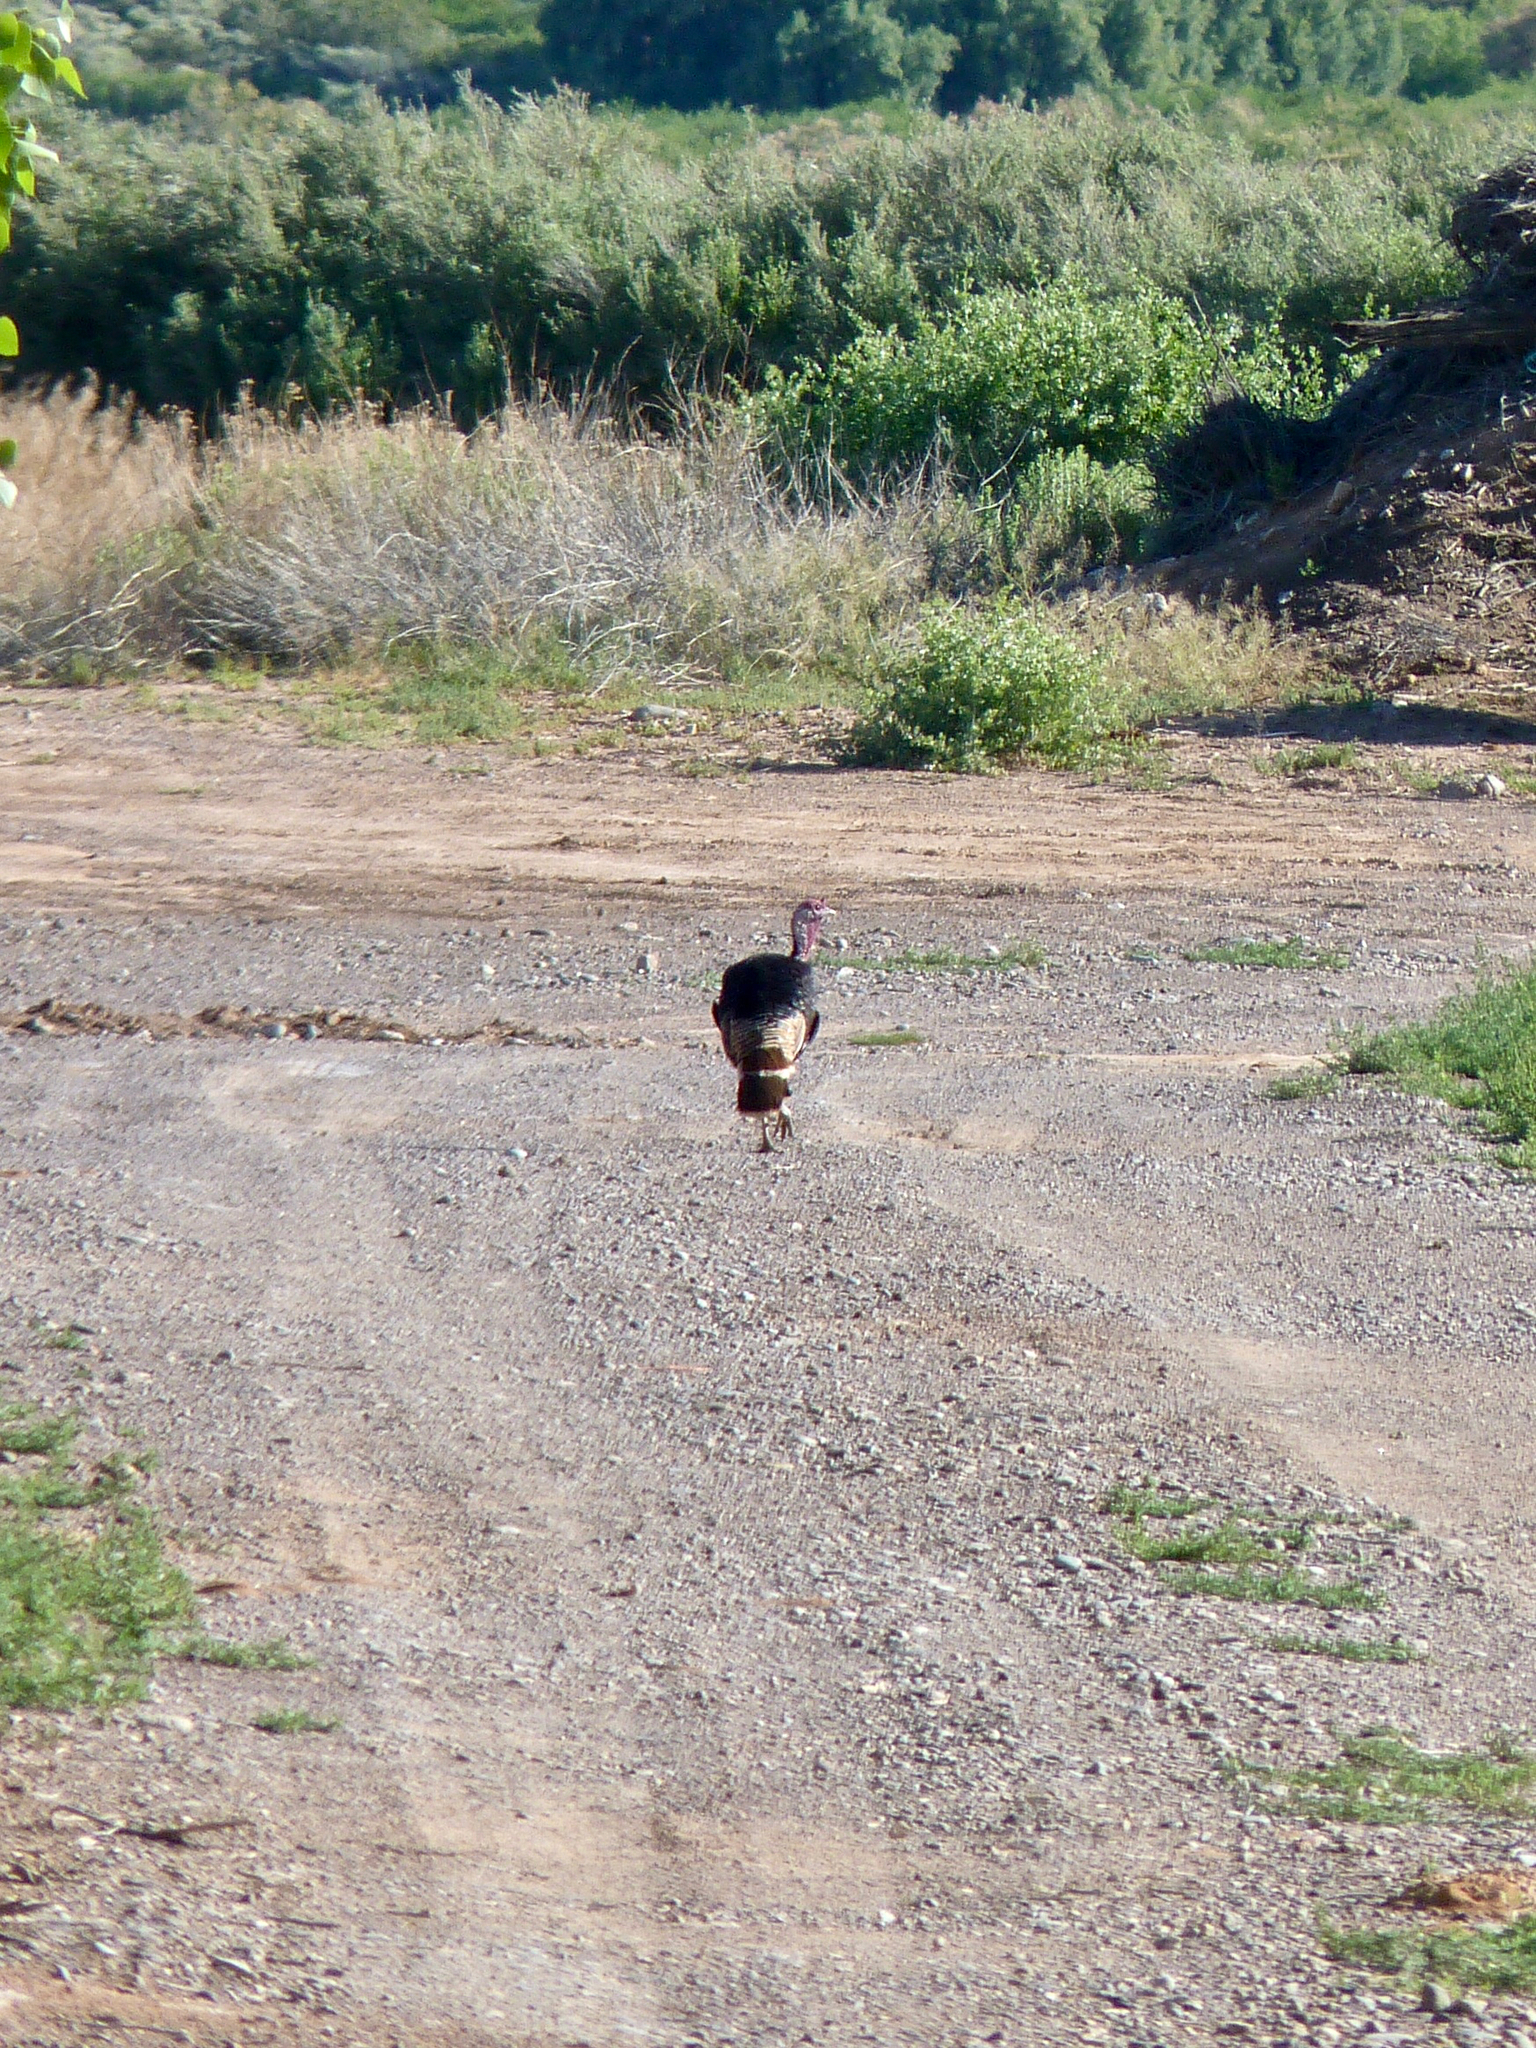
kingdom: Animalia
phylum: Chordata
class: Aves
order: Galliformes
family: Phasianidae
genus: Meleagris
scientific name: Meleagris gallopavo
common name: Wild turkey
